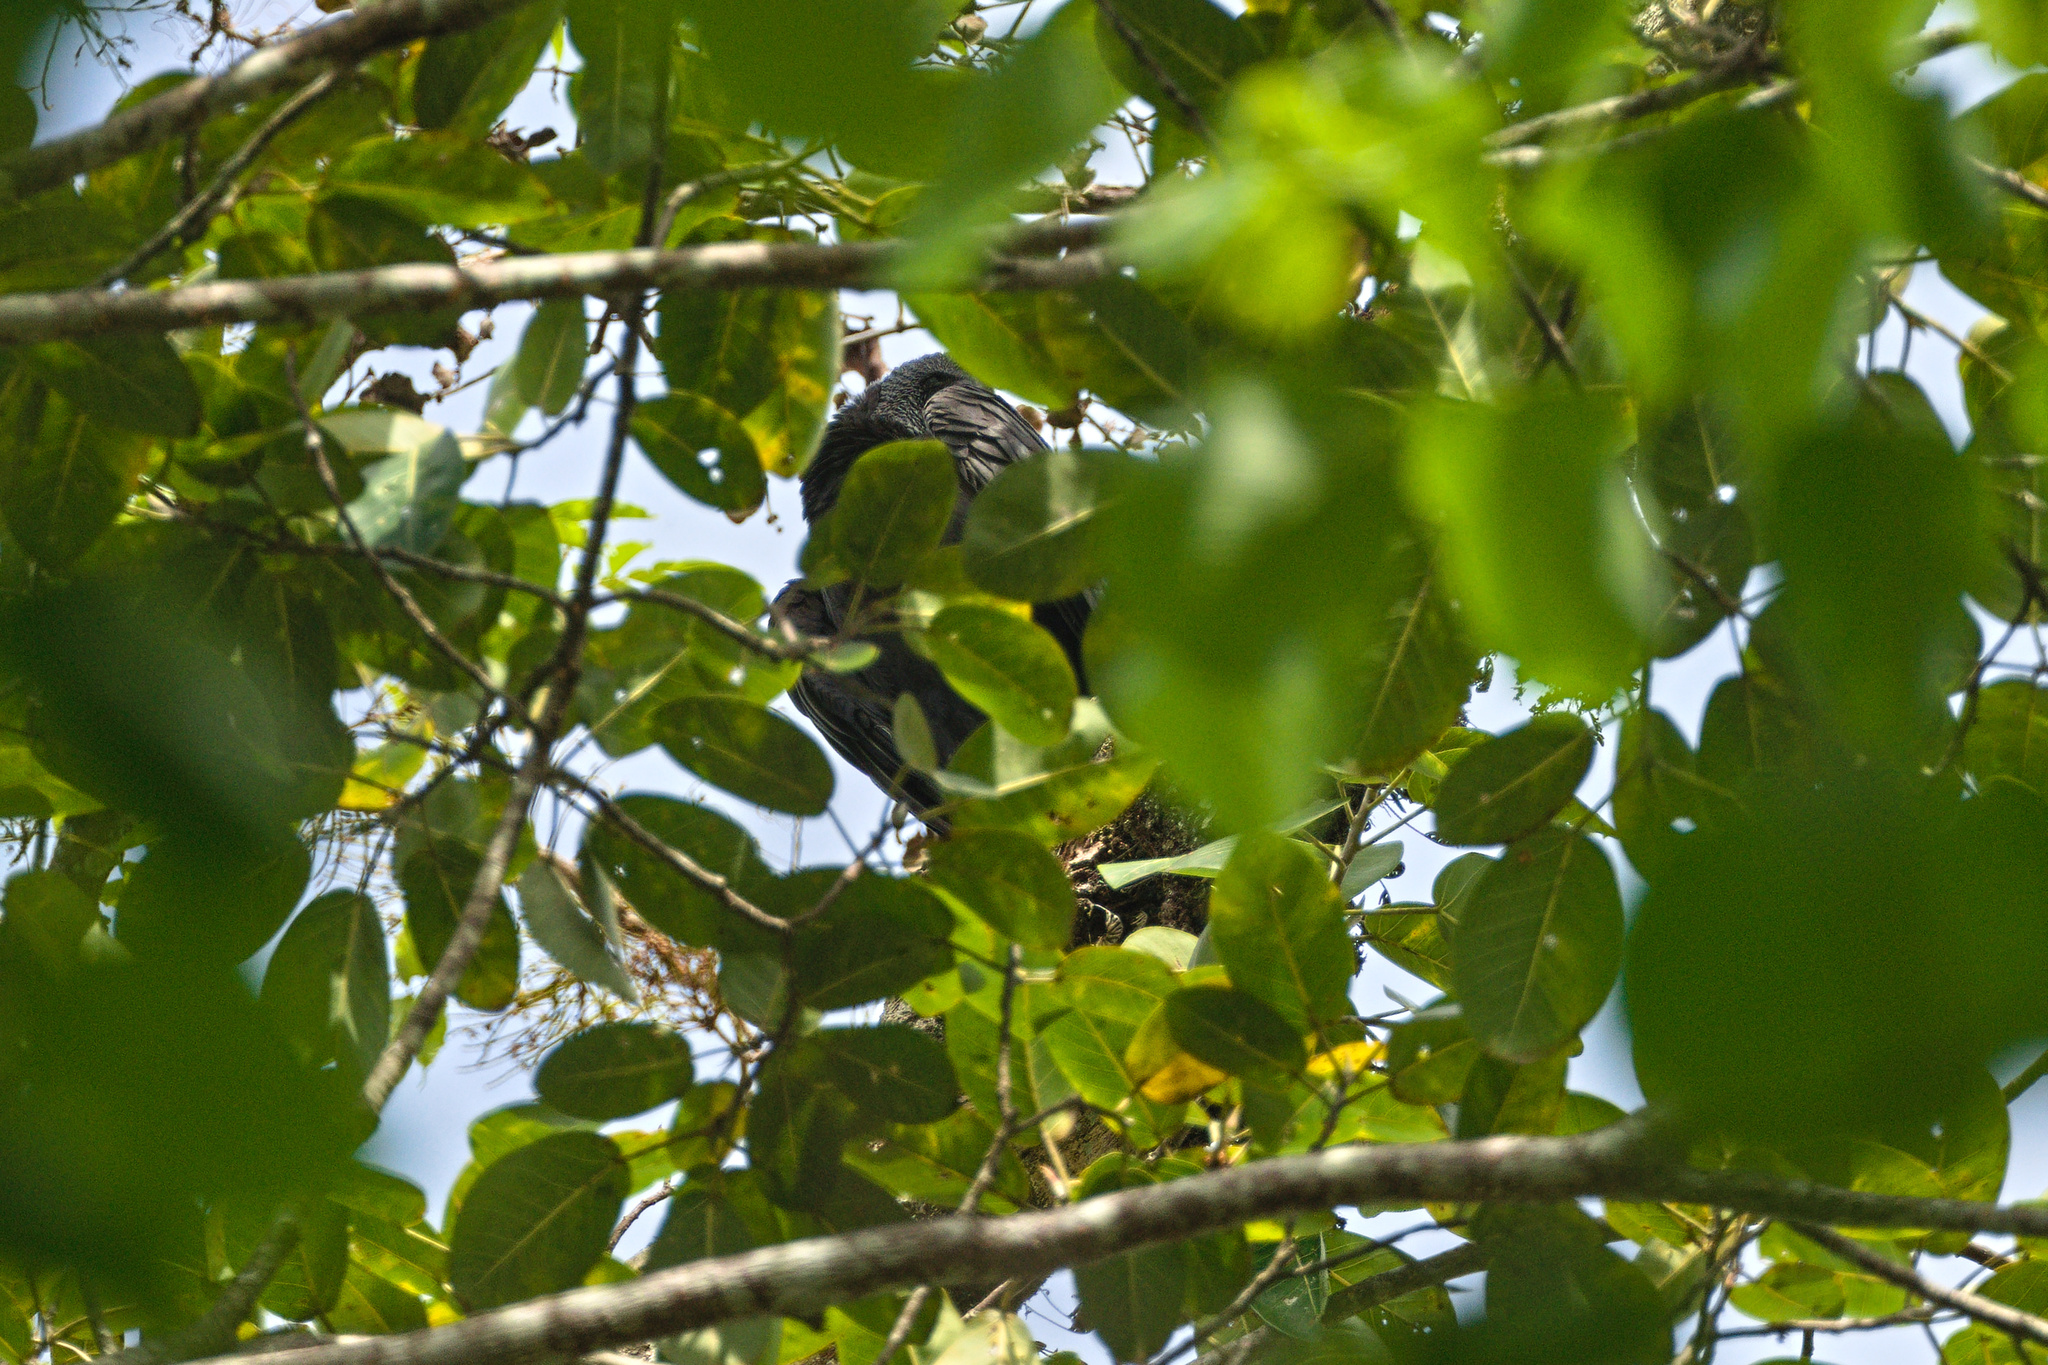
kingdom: Animalia
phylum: Chordata
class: Aves
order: Accipitriformes
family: Cathartidae
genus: Coragyps
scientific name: Coragyps atratus
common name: Black vulture
